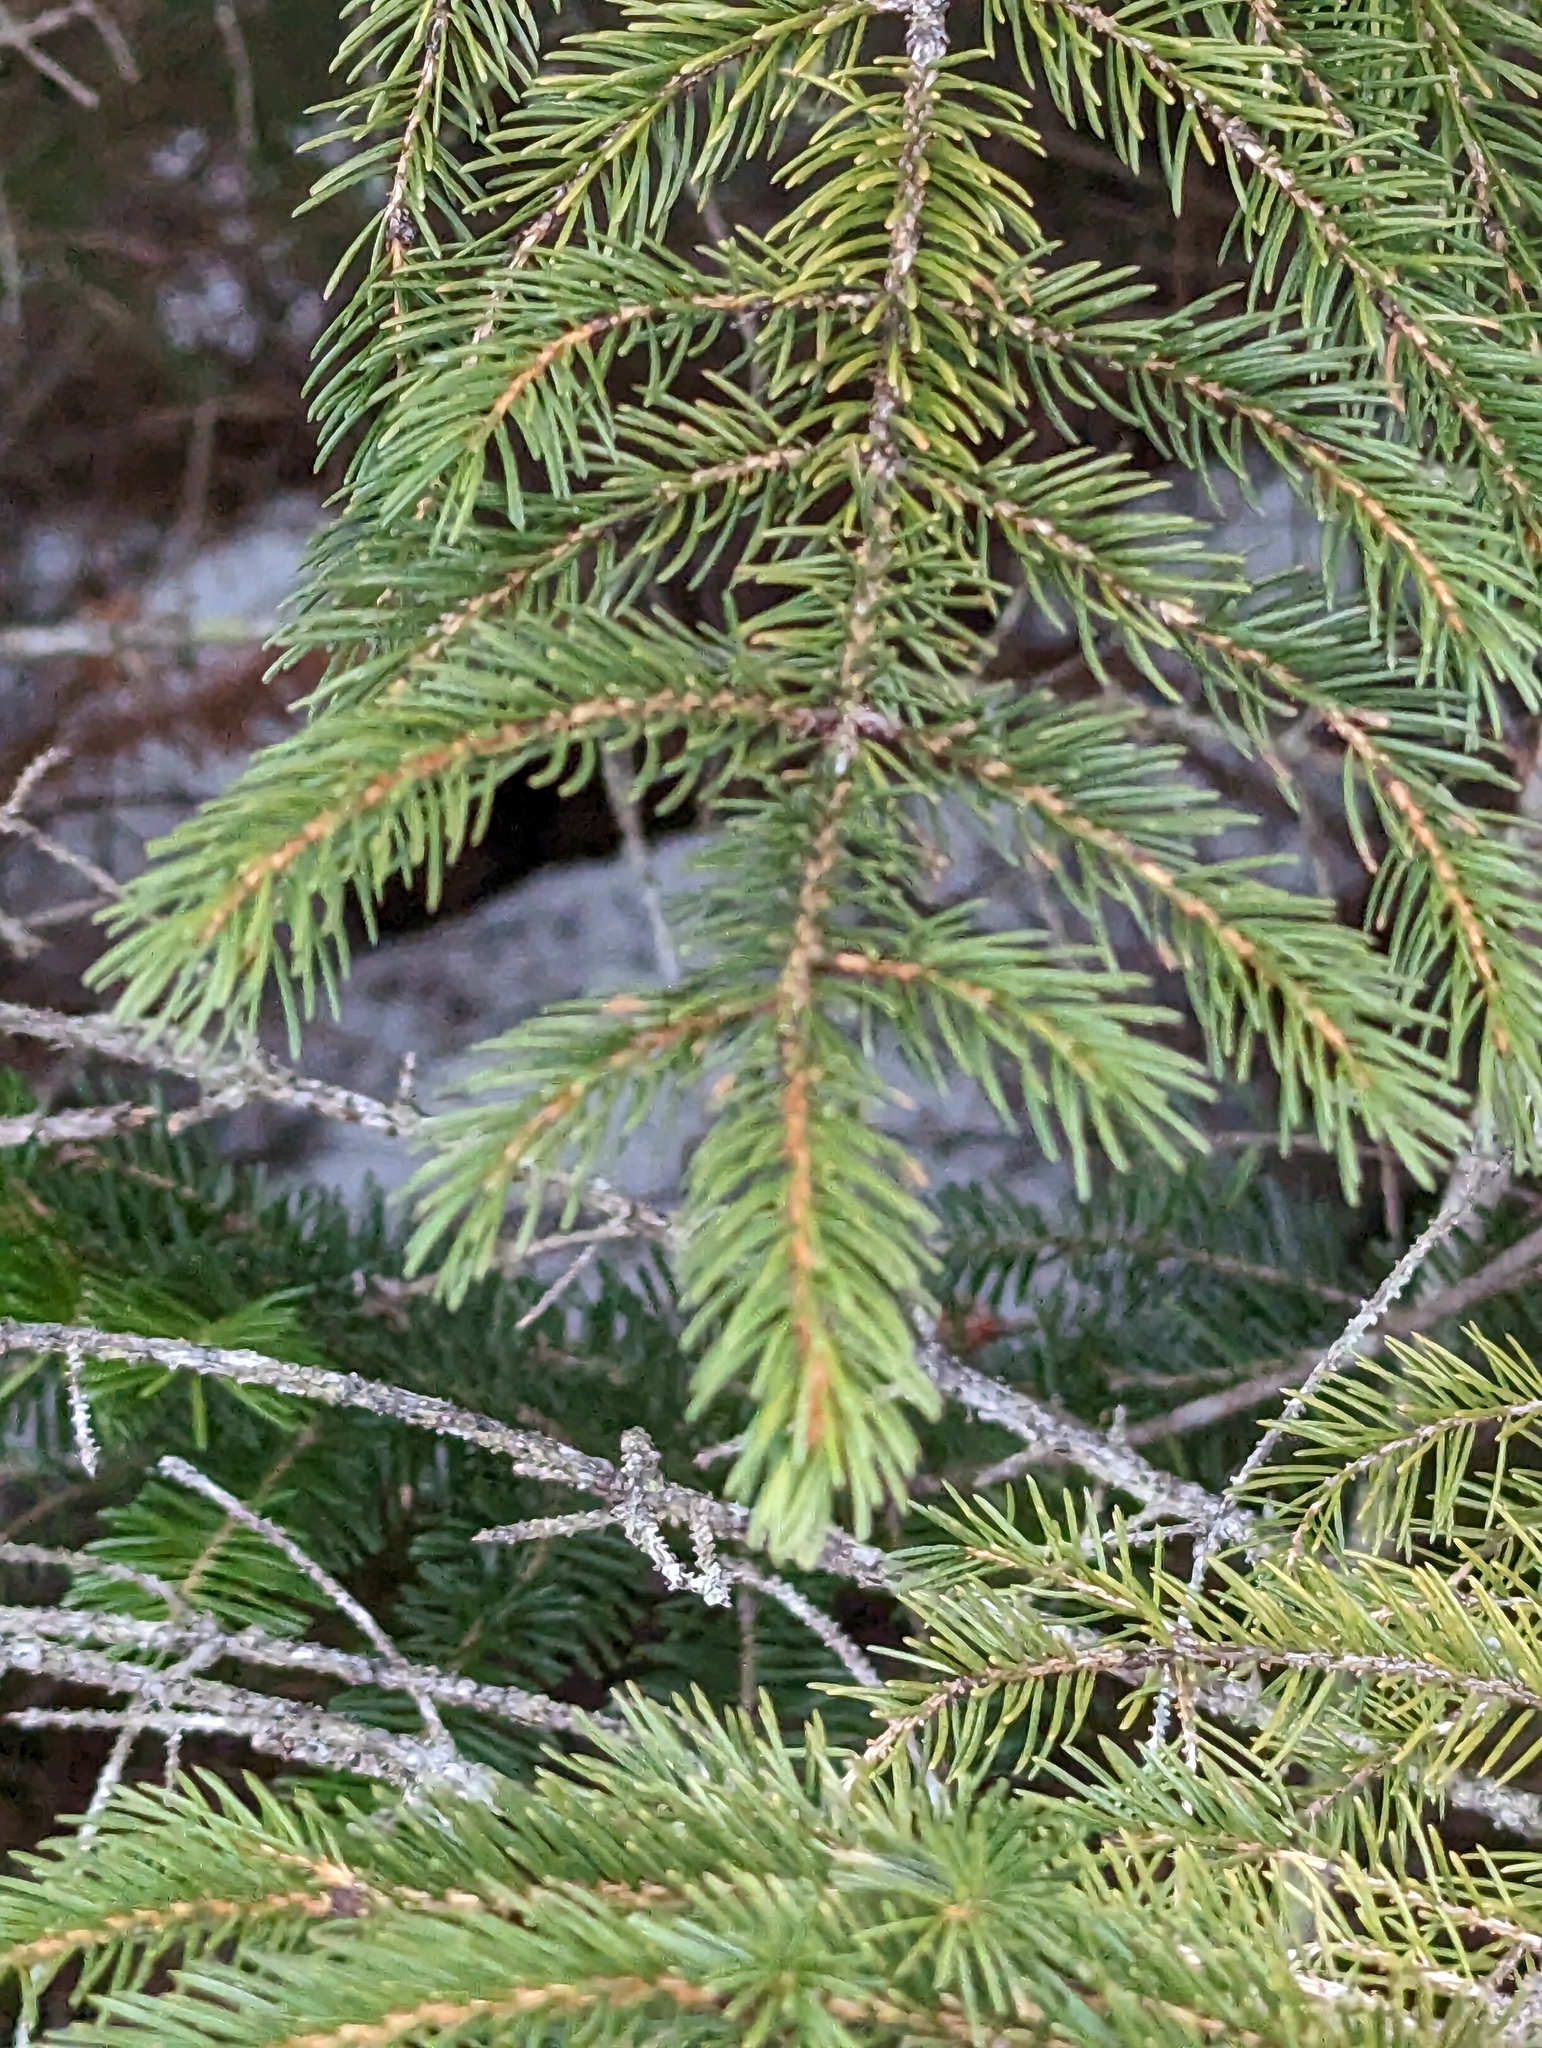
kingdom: Plantae
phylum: Tracheophyta
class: Pinopsida
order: Pinales
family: Pinaceae
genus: Picea
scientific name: Picea rubens
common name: Red spruce
